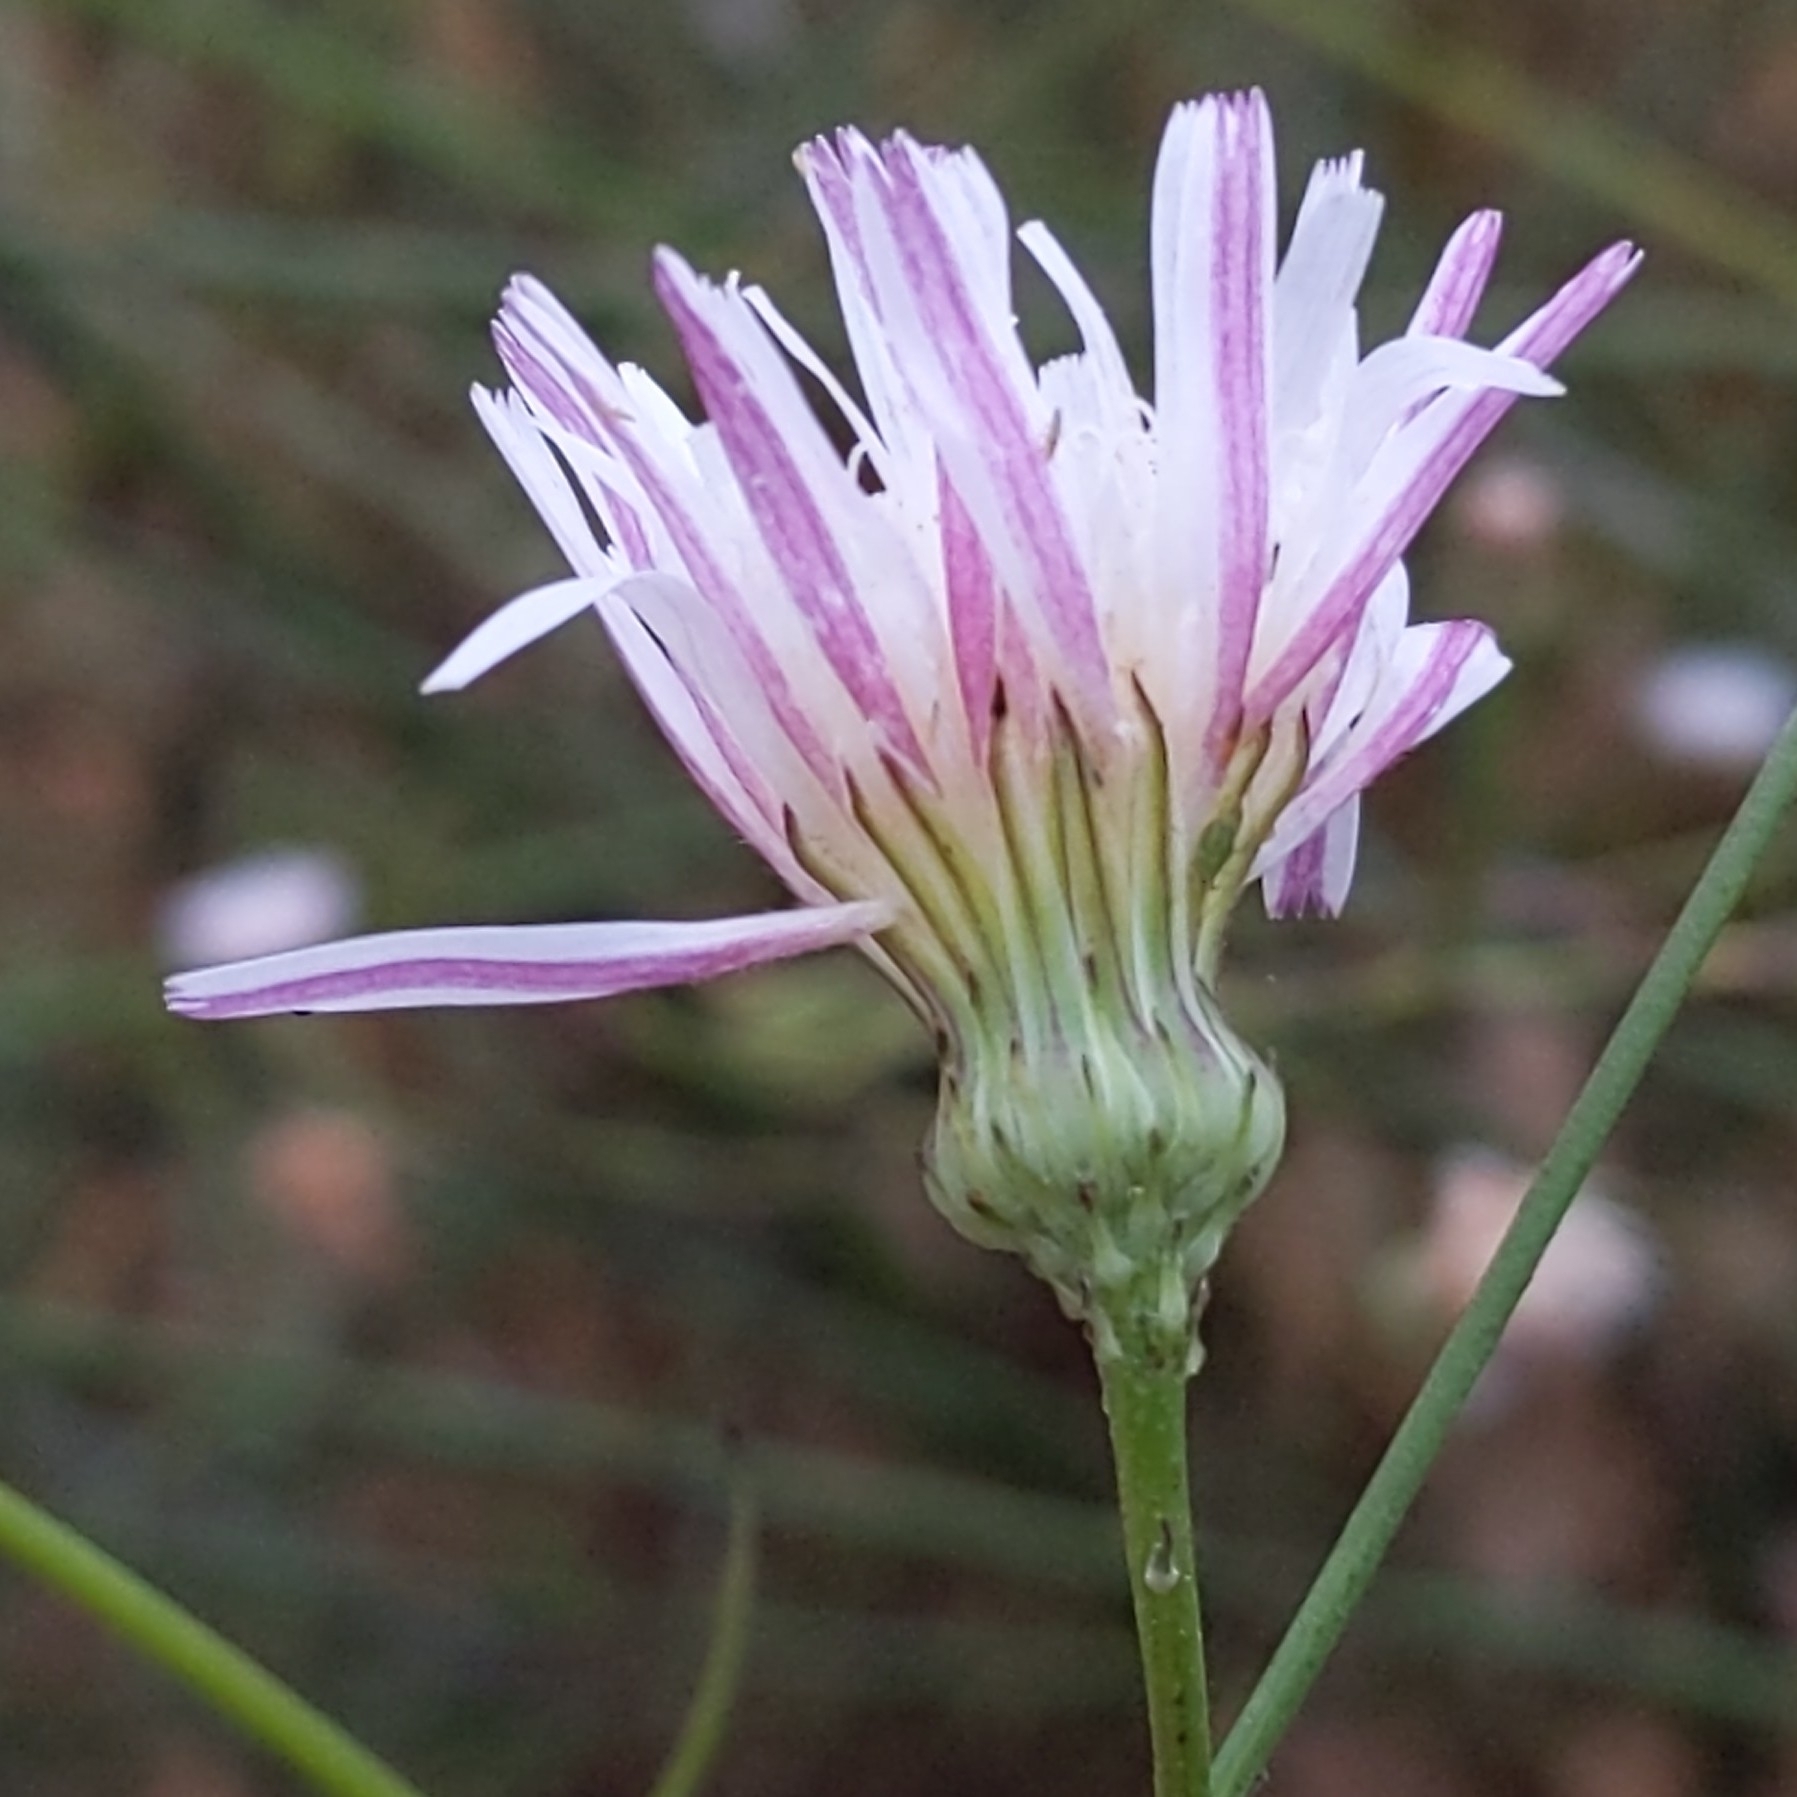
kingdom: Plantae
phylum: Tracheophyta
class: Magnoliopsida
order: Asterales
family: Asteraceae
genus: Malacothrix
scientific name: Malacothrix saxatilis
